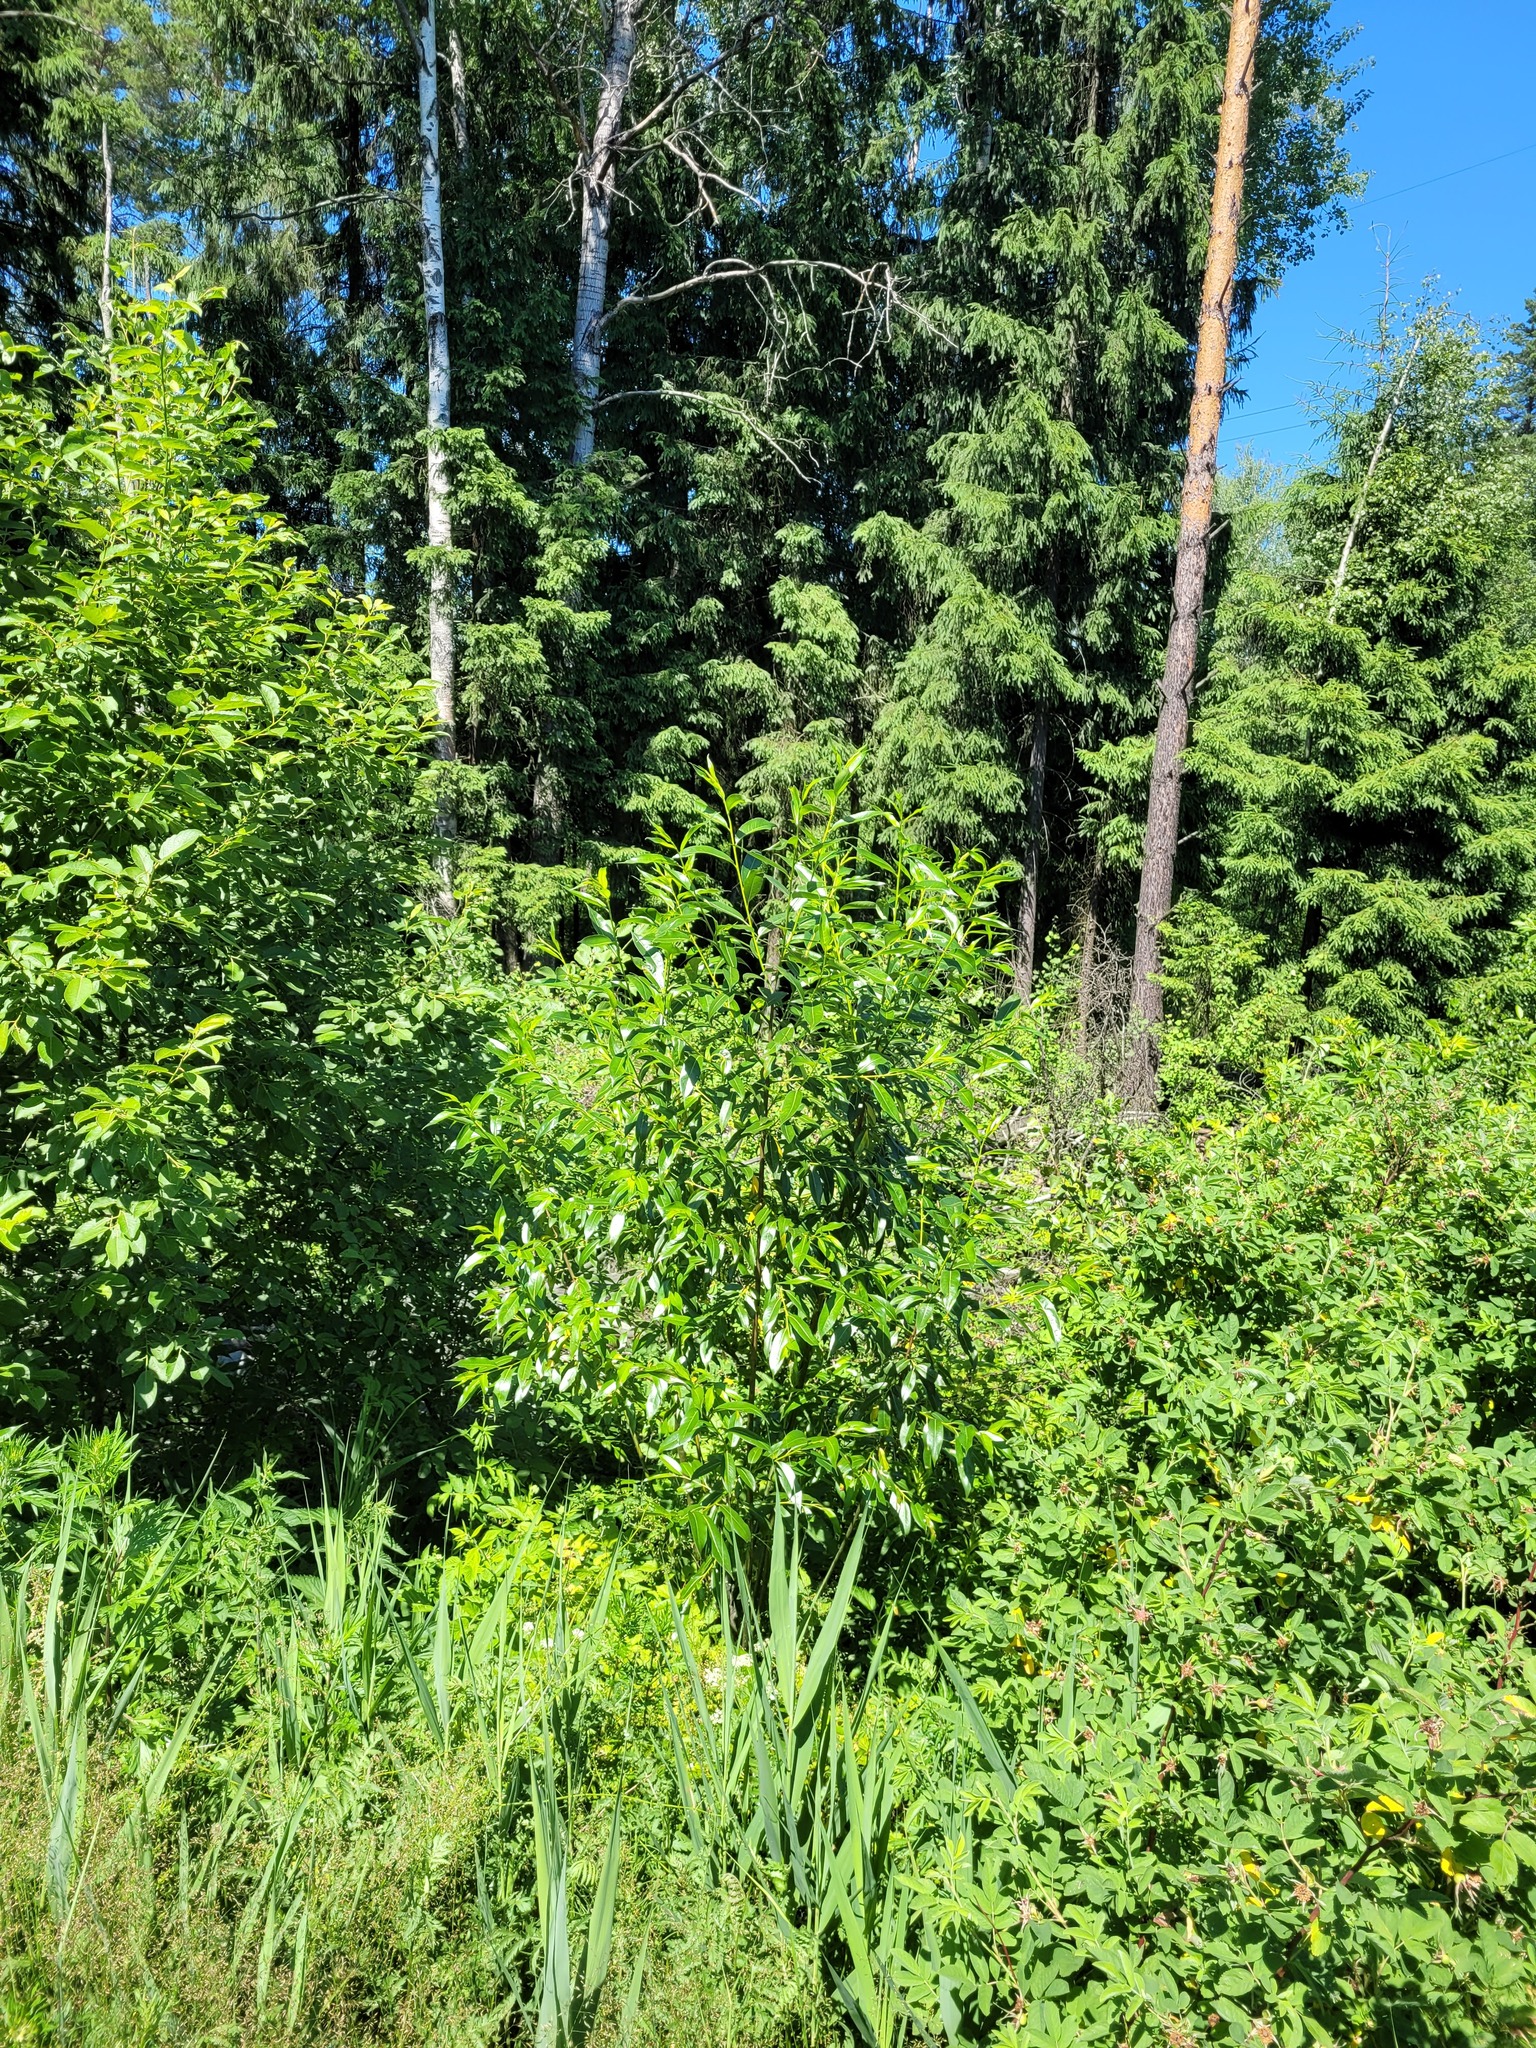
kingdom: Plantae
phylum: Tracheophyta
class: Magnoliopsida
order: Malpighiales
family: Salicaceae
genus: Salix
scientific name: Salix pentandra
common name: Bay willow
